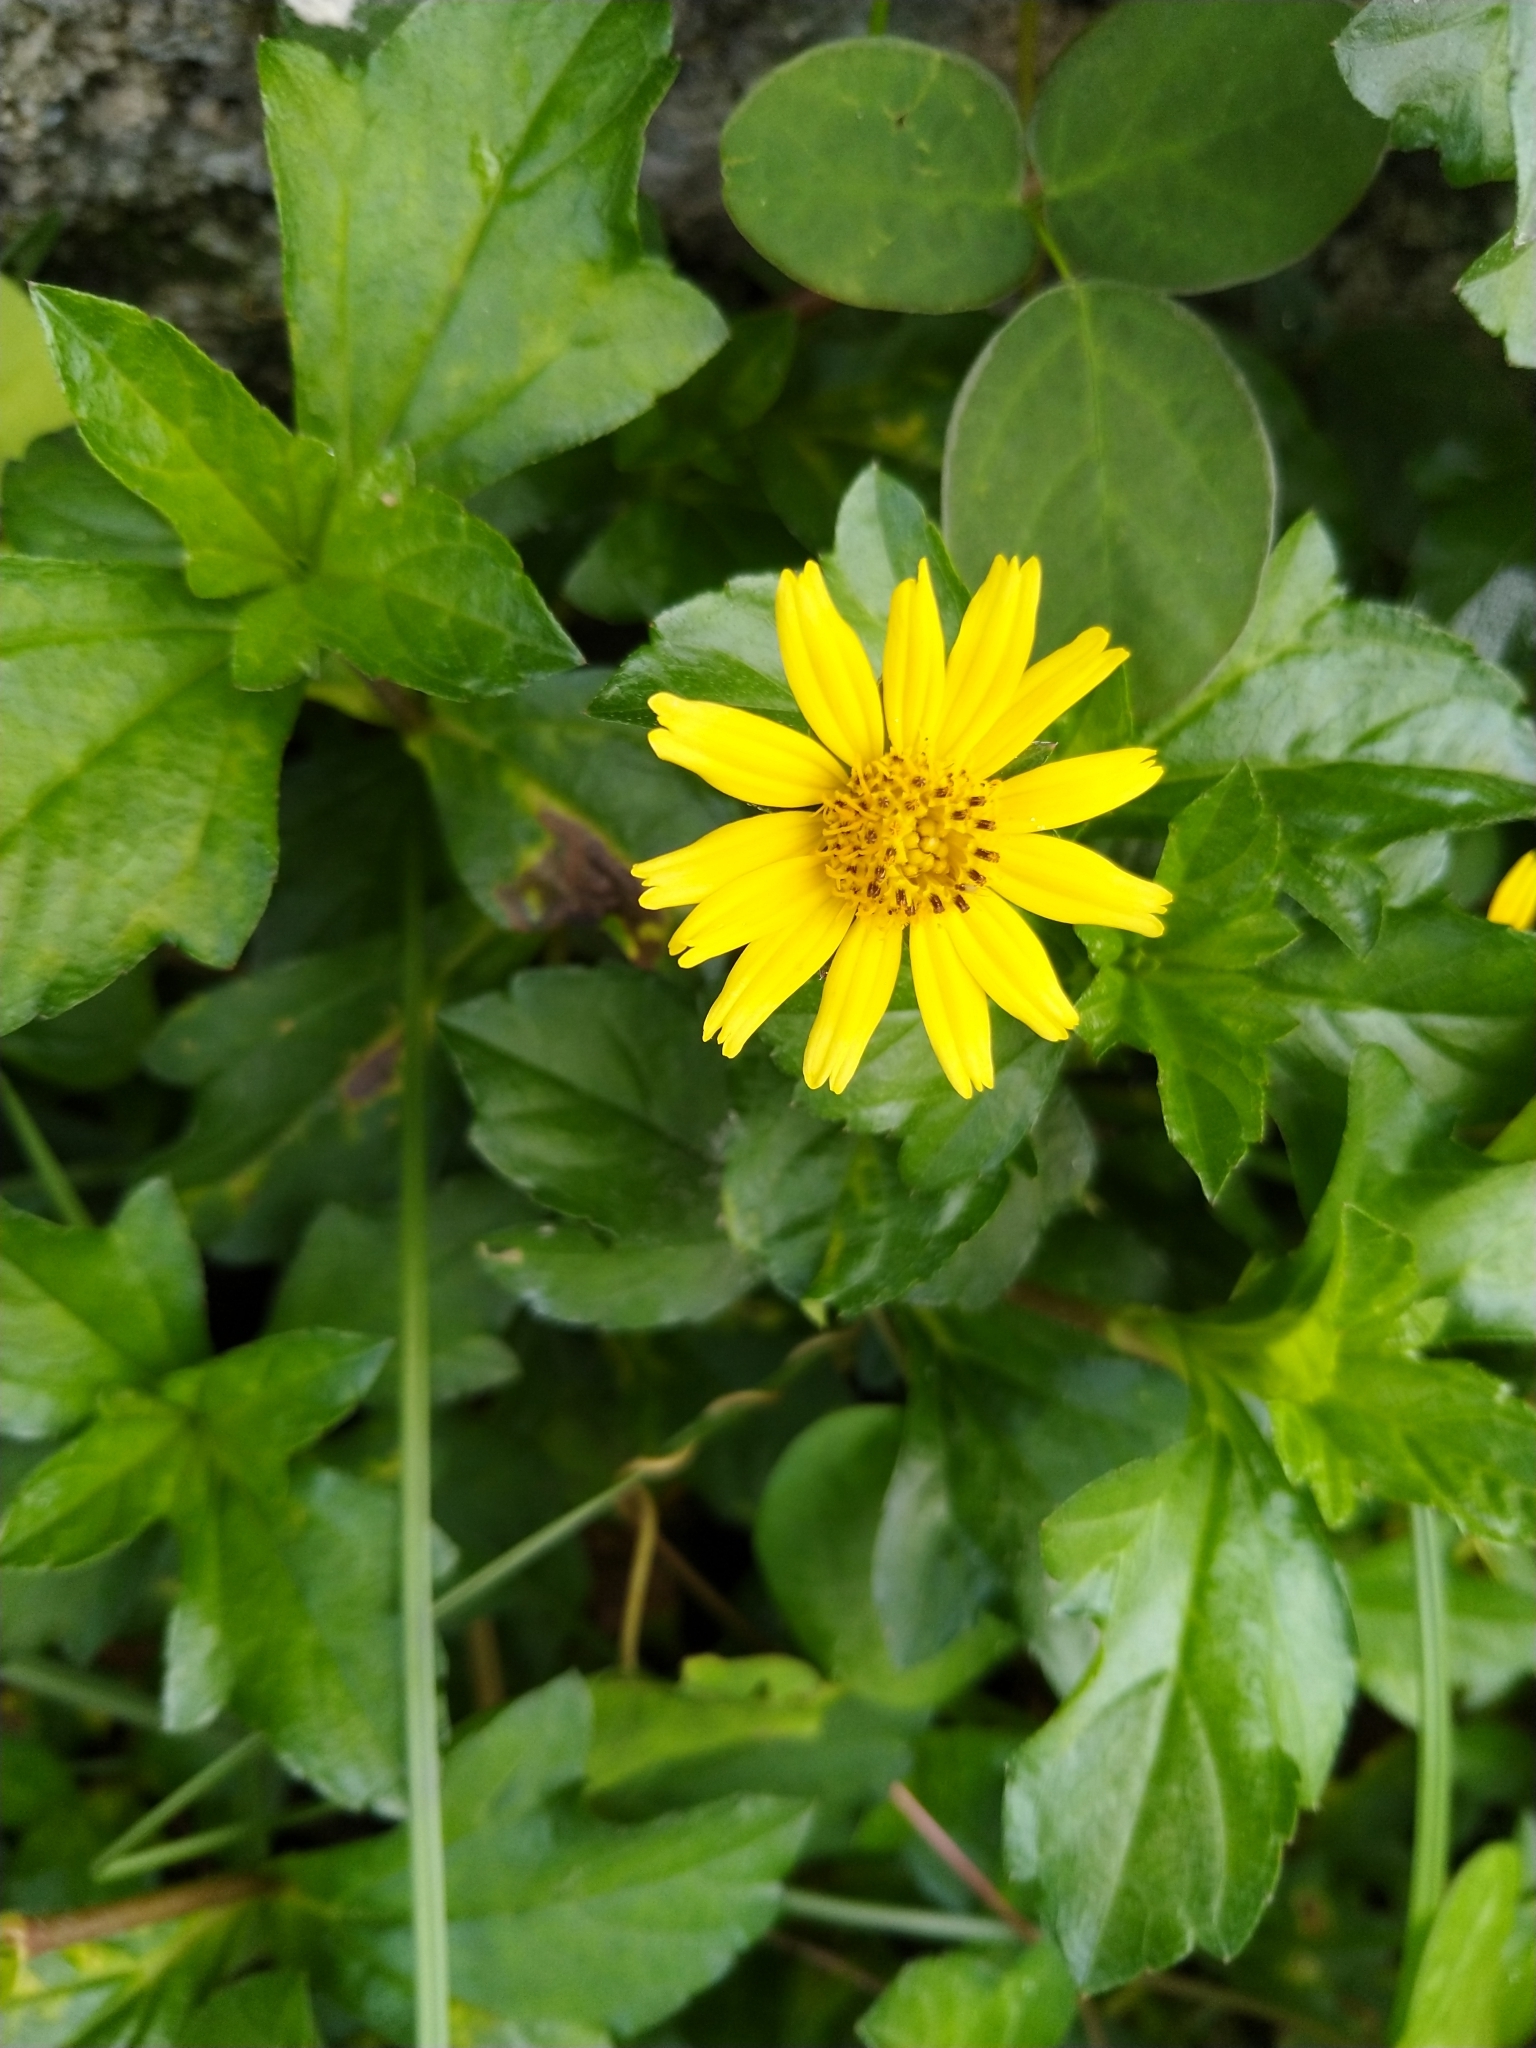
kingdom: Plantae
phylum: Tracheophyta
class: Magnoliopsida
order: Asterales
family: Asteraceae
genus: Sphagneticola
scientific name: Sphagneticola trilobata
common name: Bay biscayne creeping-oxeye
